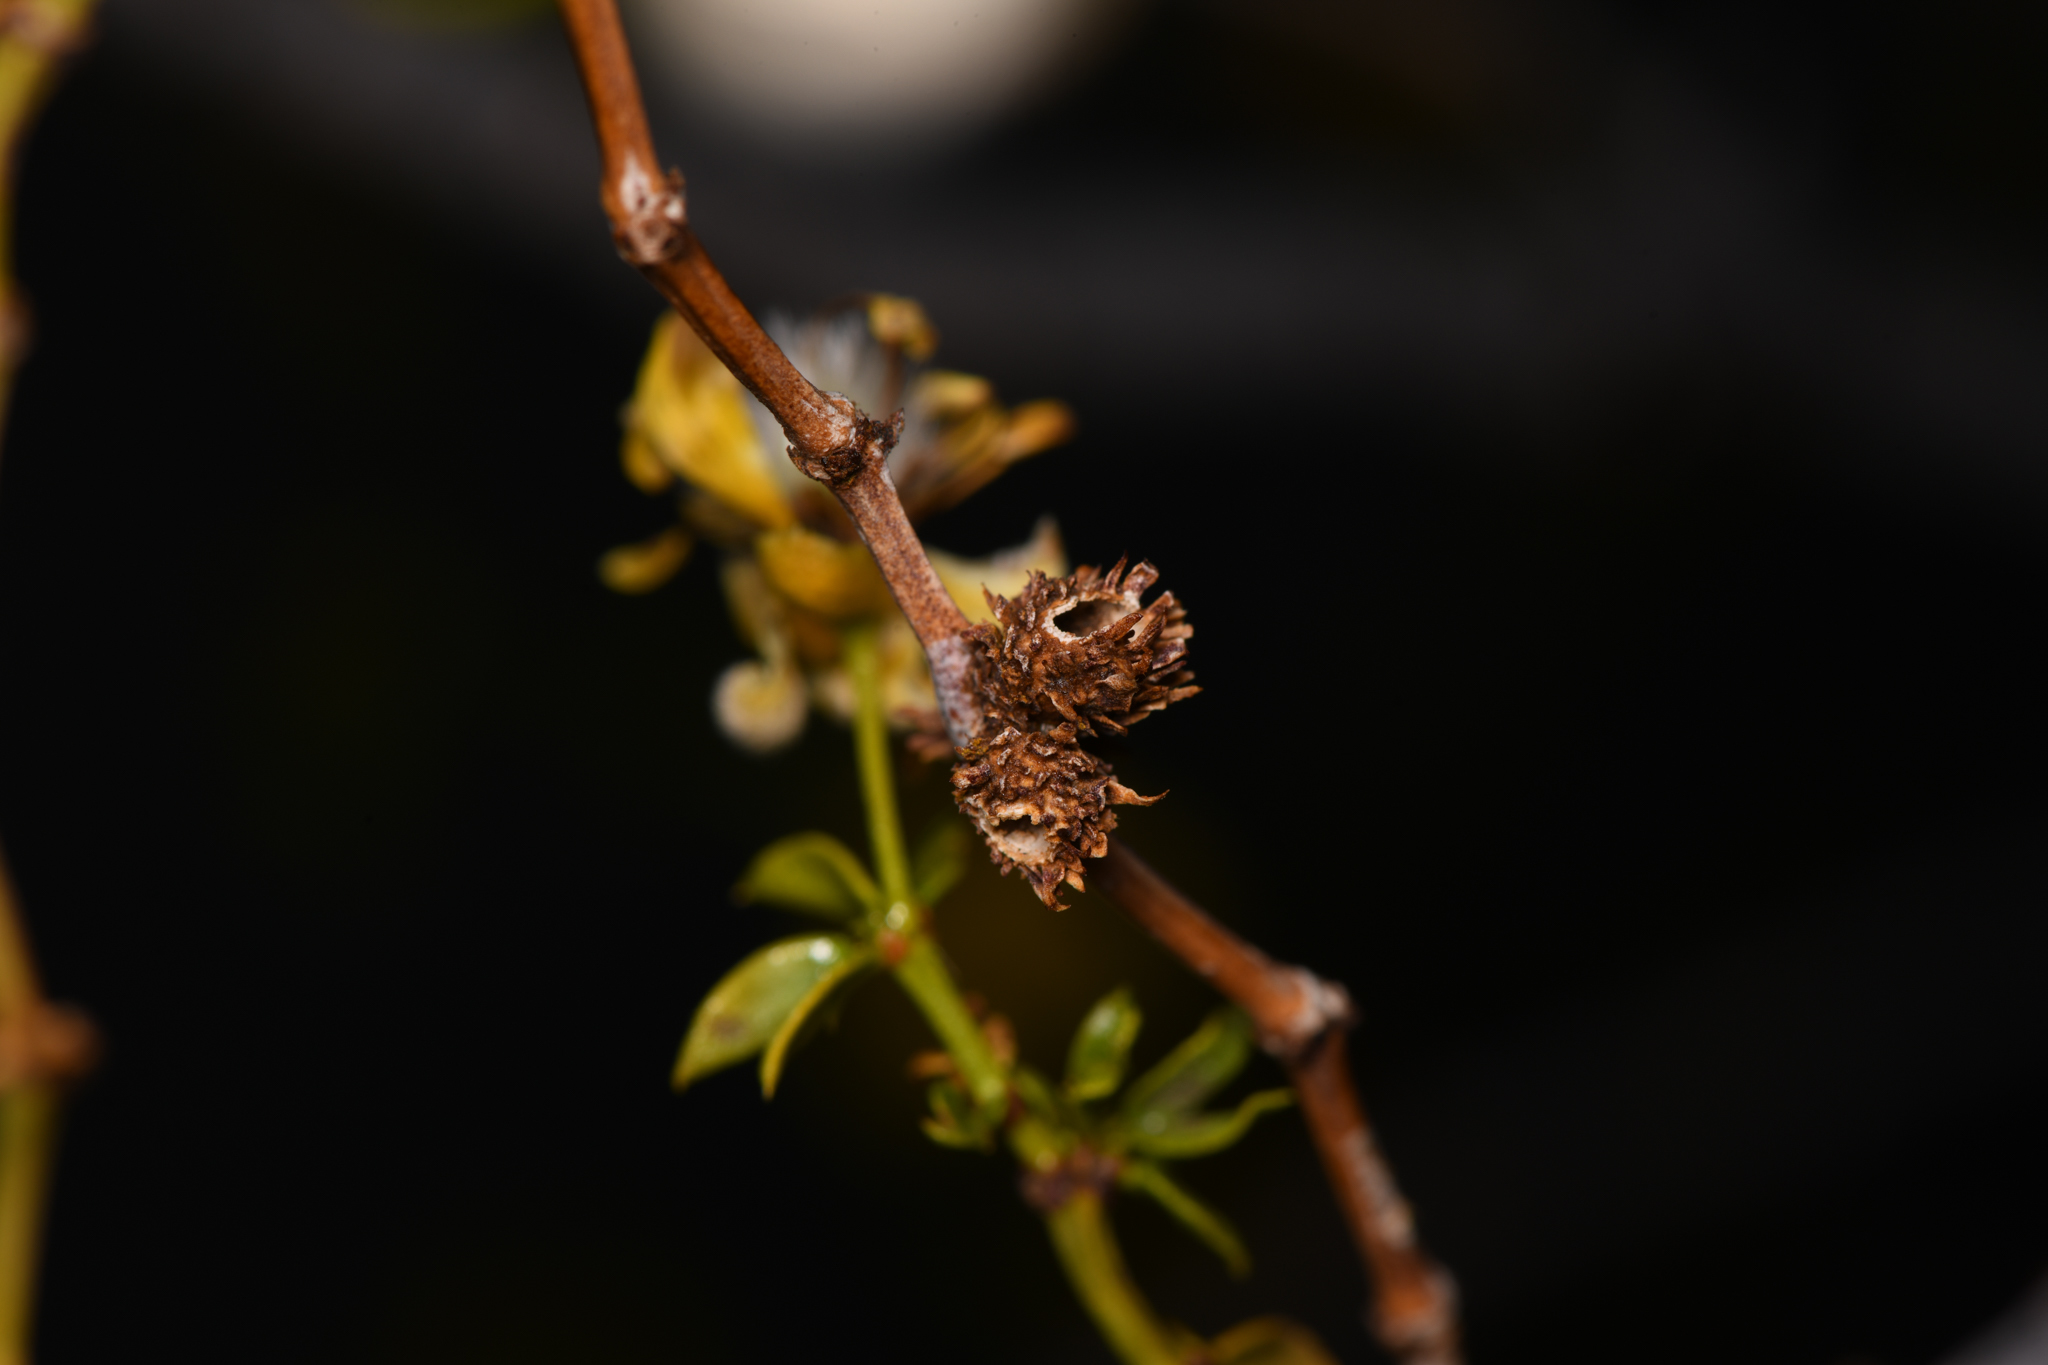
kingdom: Animalia
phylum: Arthropoda
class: Insecta
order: Diptera
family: Cecidomyiidae
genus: Asphondylia
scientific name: Asphondylia rosetta
